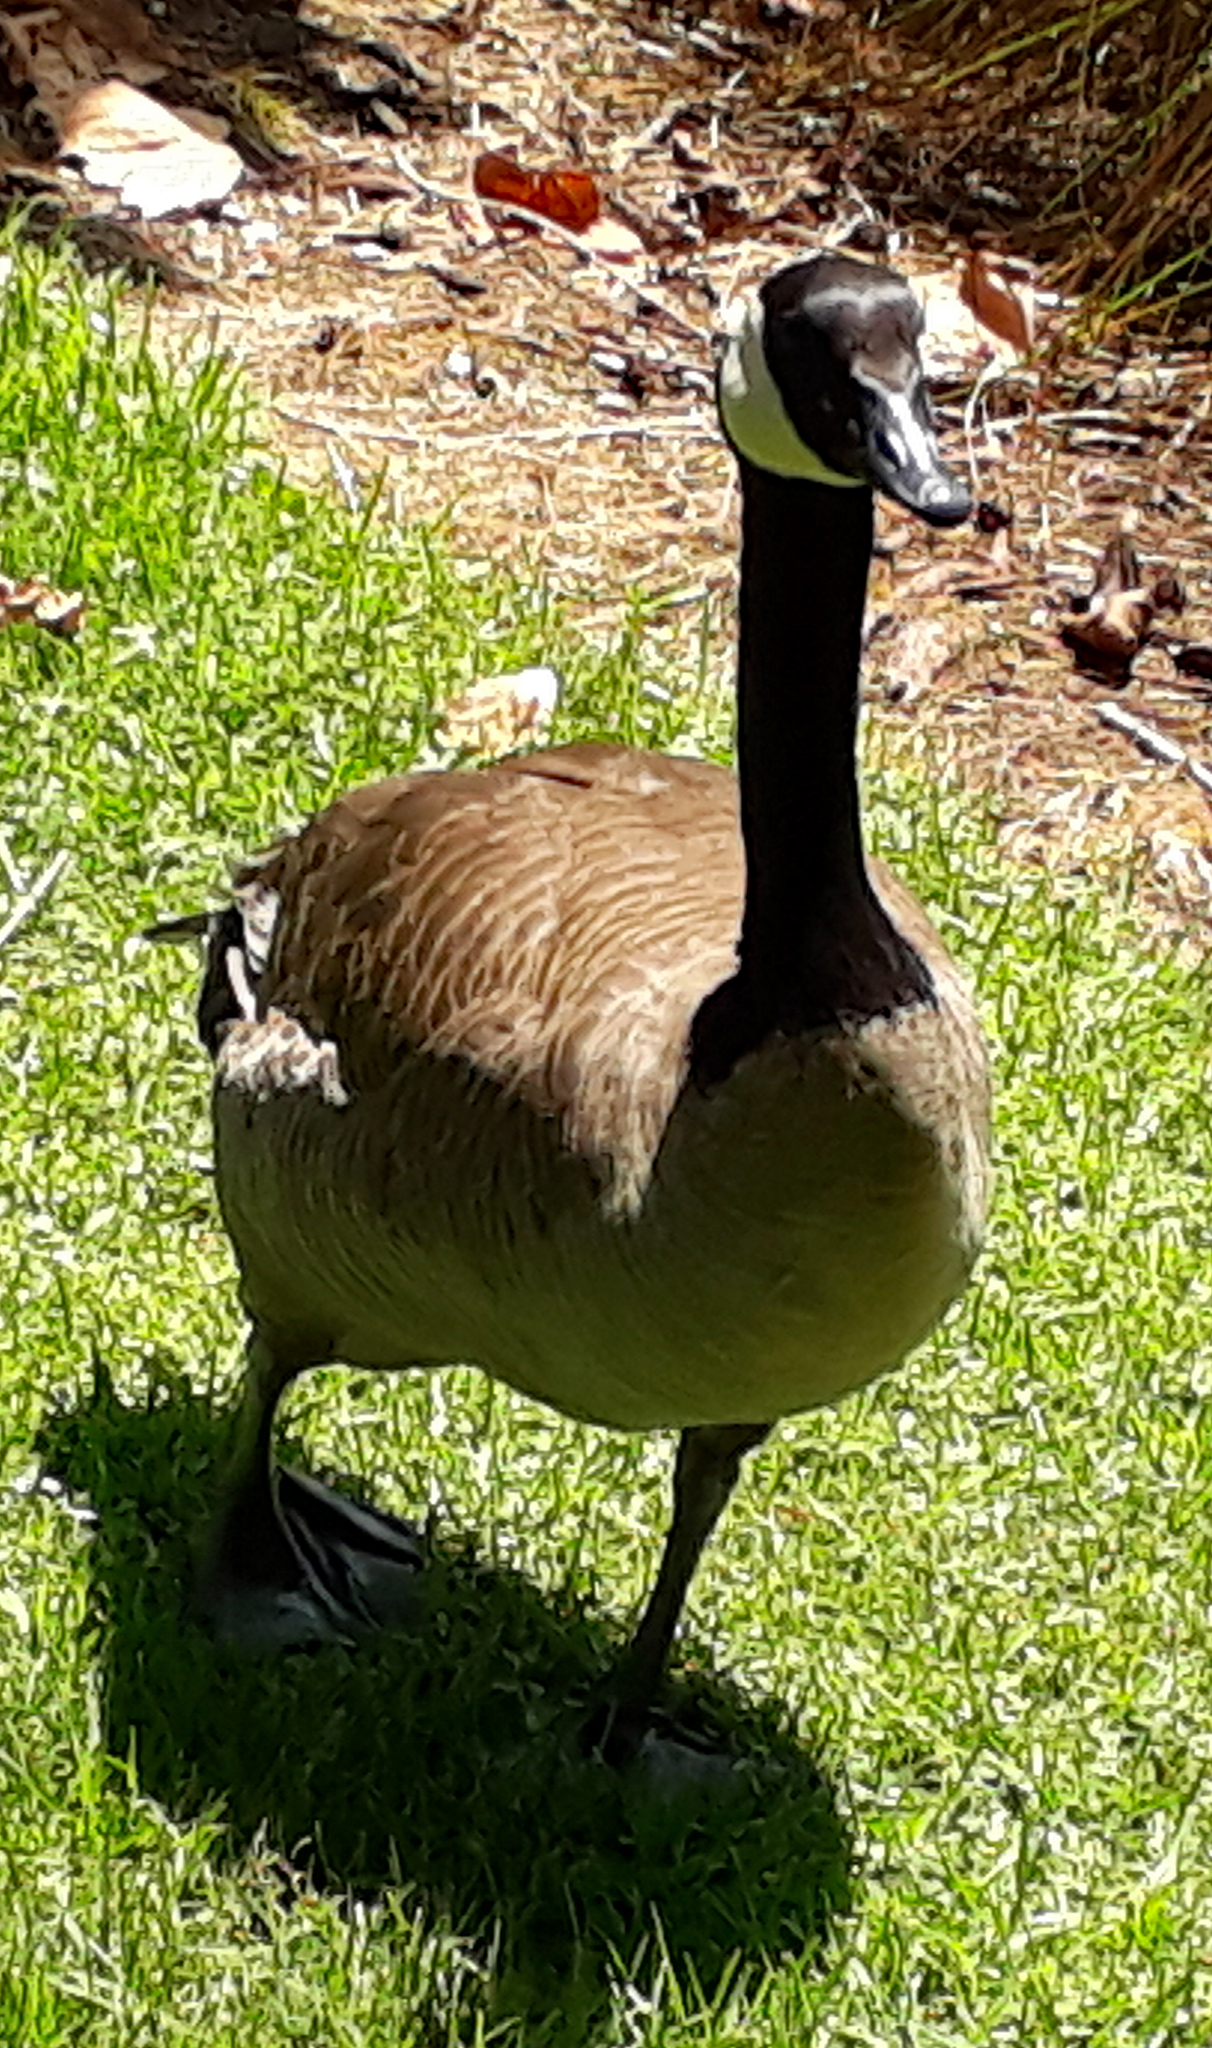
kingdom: Animalia
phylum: Chordata
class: Aves
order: Anseriformes
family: Anatidae
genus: Branta
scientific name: Branta canadensis
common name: Canada goose
